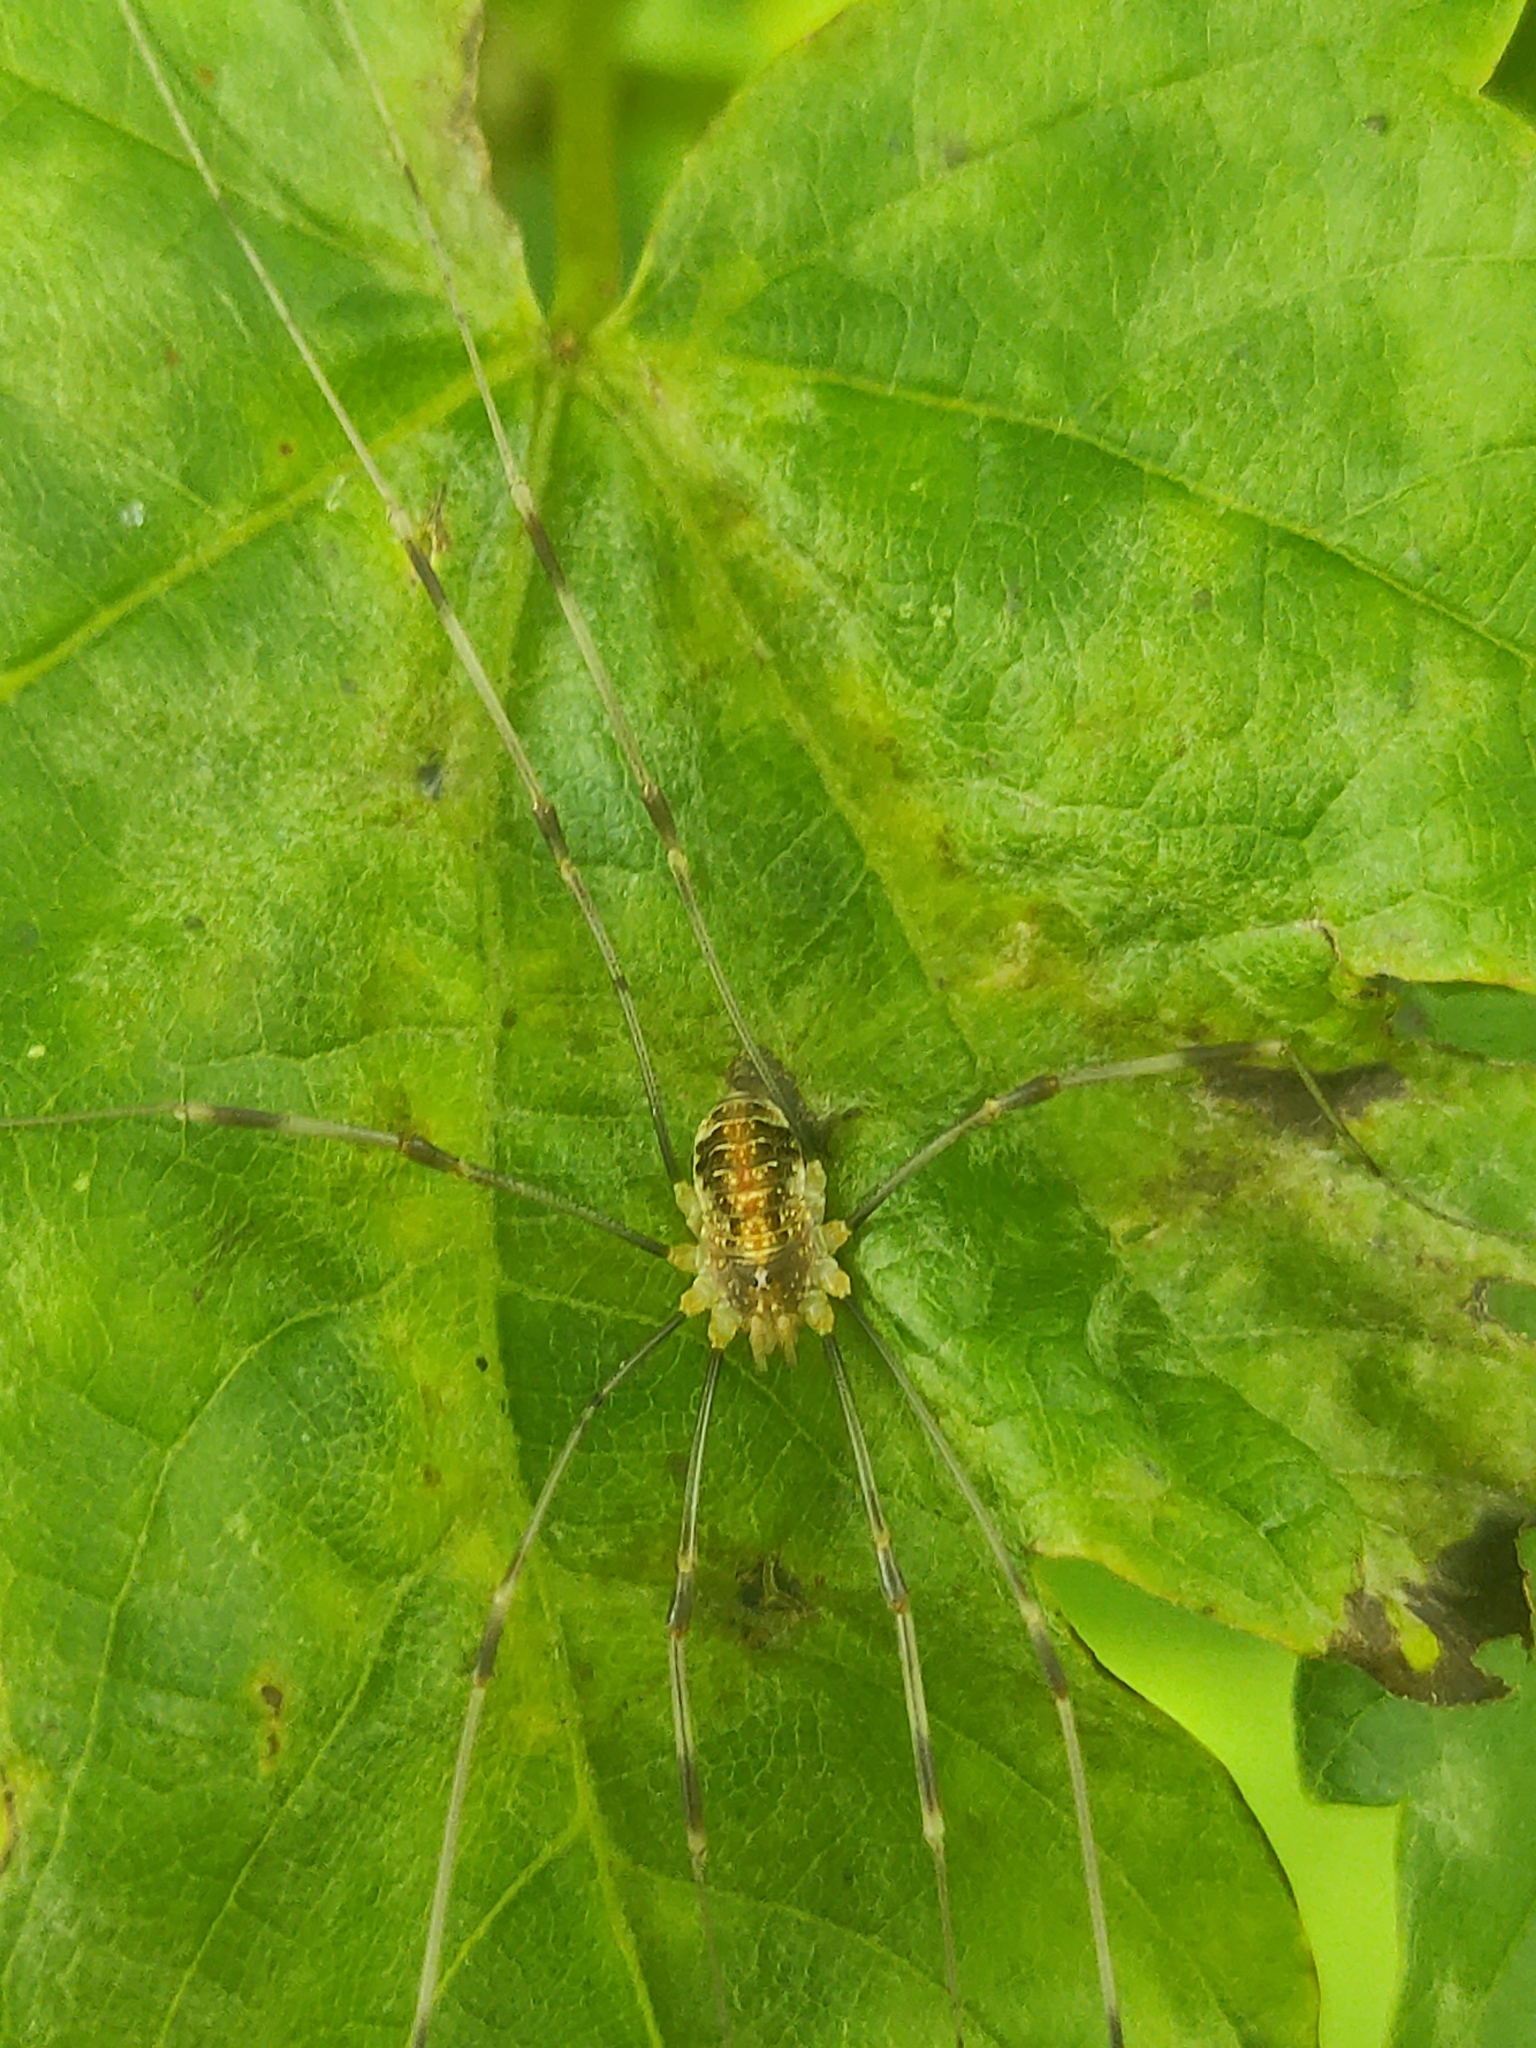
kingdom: Animalia
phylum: Arthropoda
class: Arachnida
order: Opiliones
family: Phalangiidae
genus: Opilio
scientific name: Opilio canestrinii
